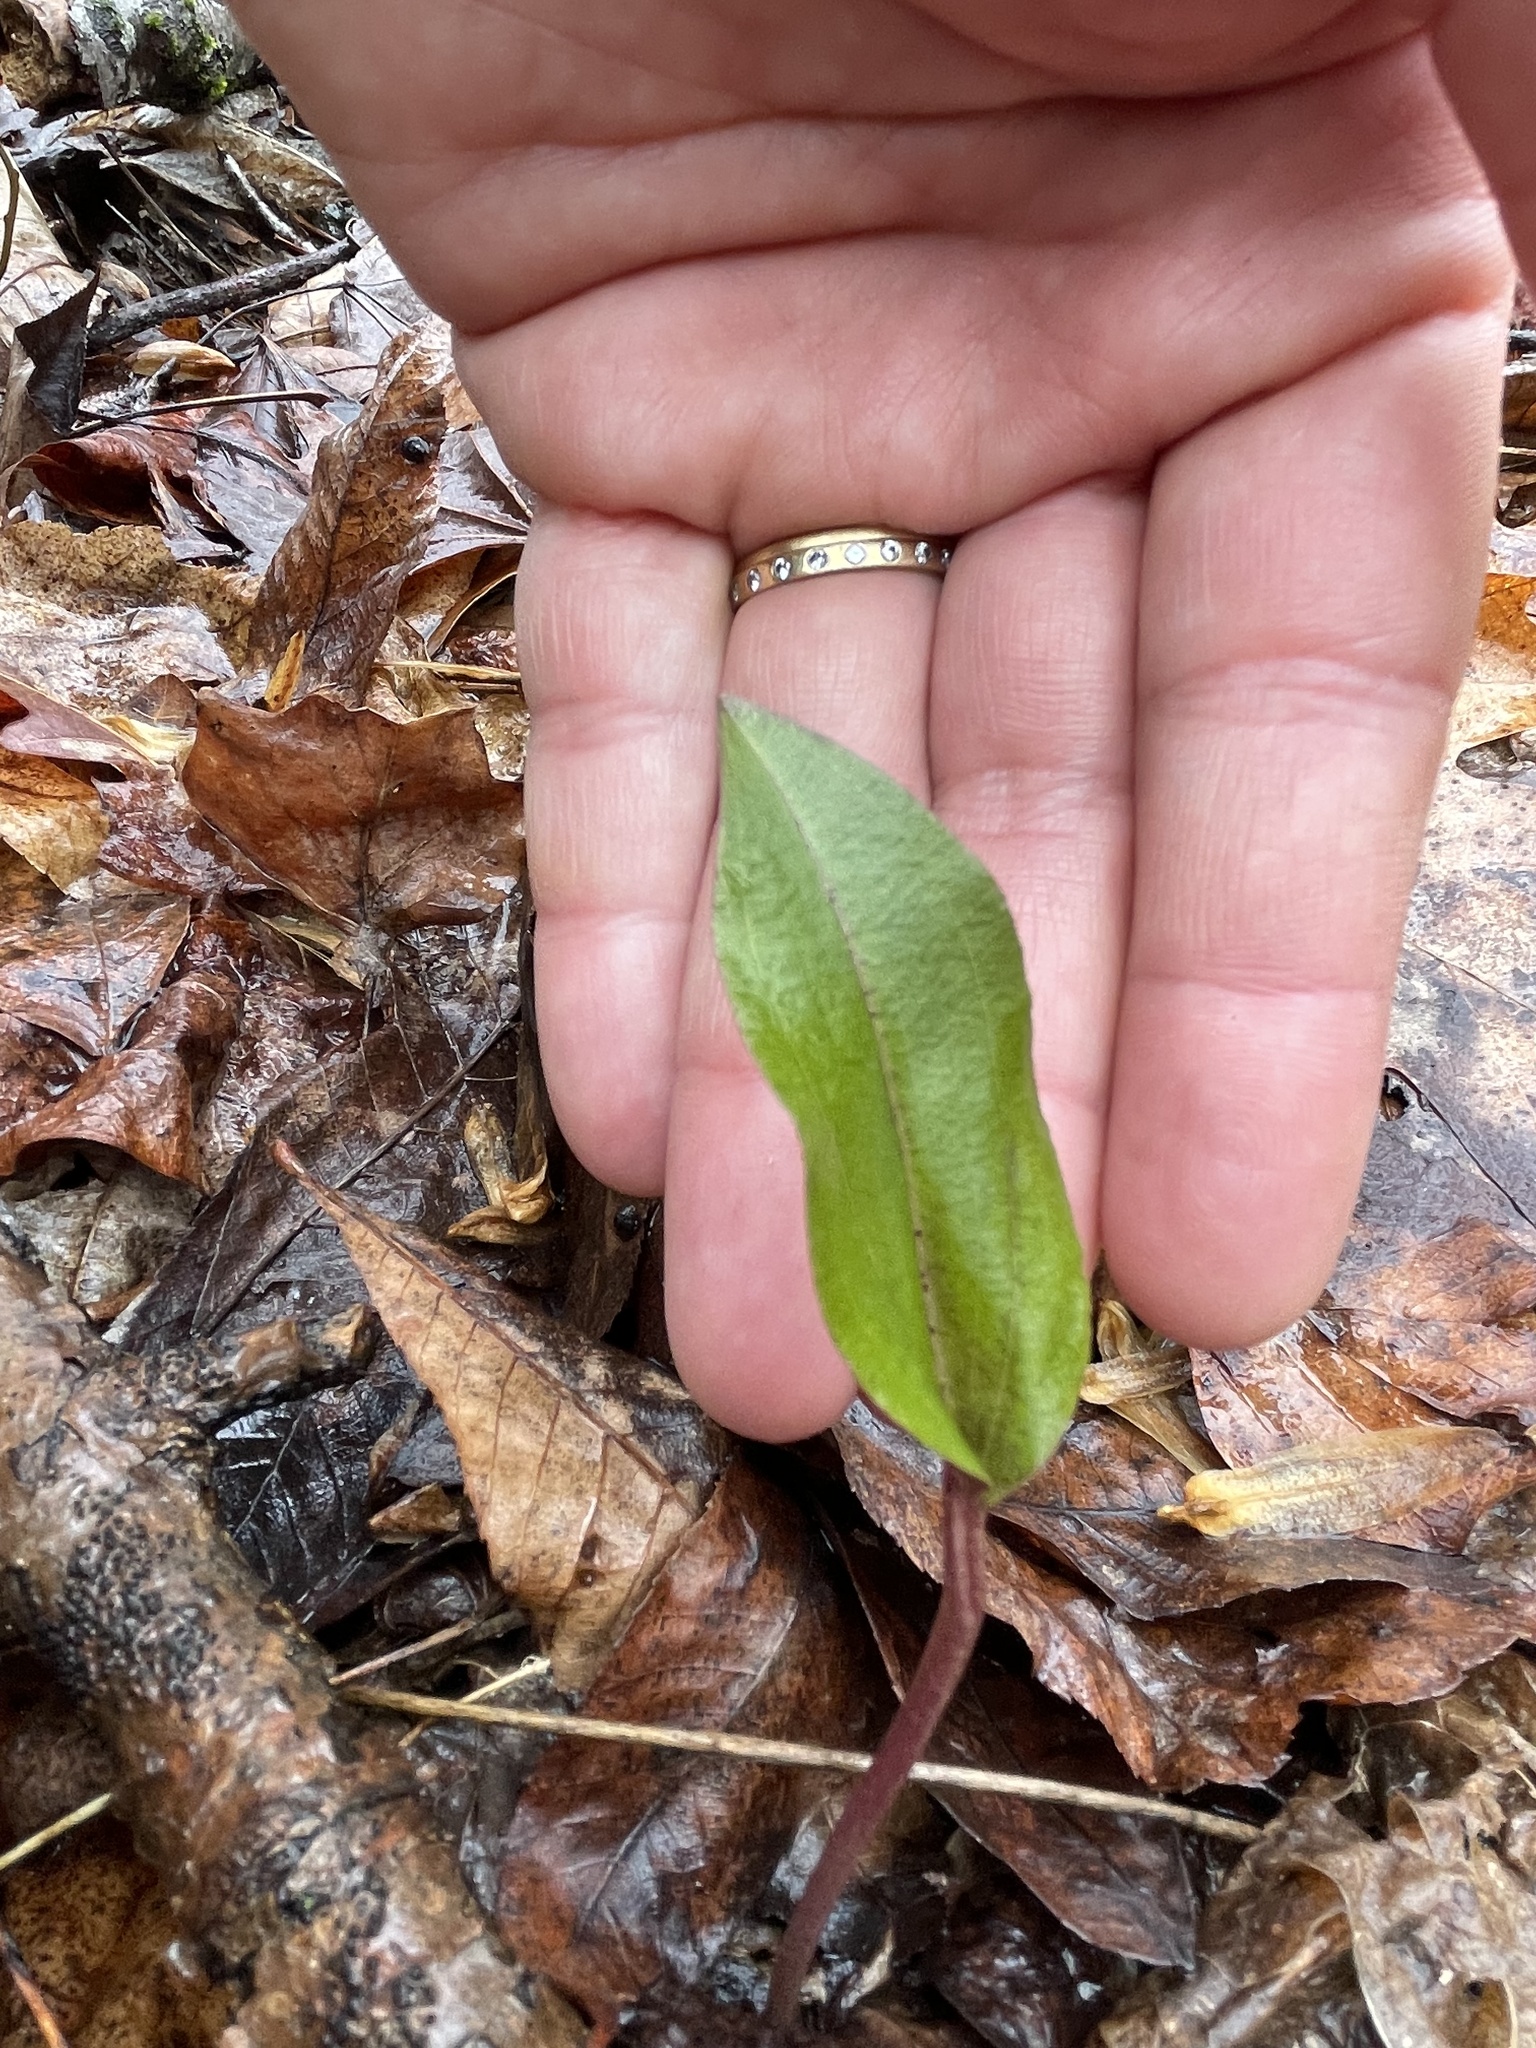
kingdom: Plantae
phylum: Tracheophyta
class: Liliopsida
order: Asparagales
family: Orchidaceae
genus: Tipularia
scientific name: Tipularia discolor
